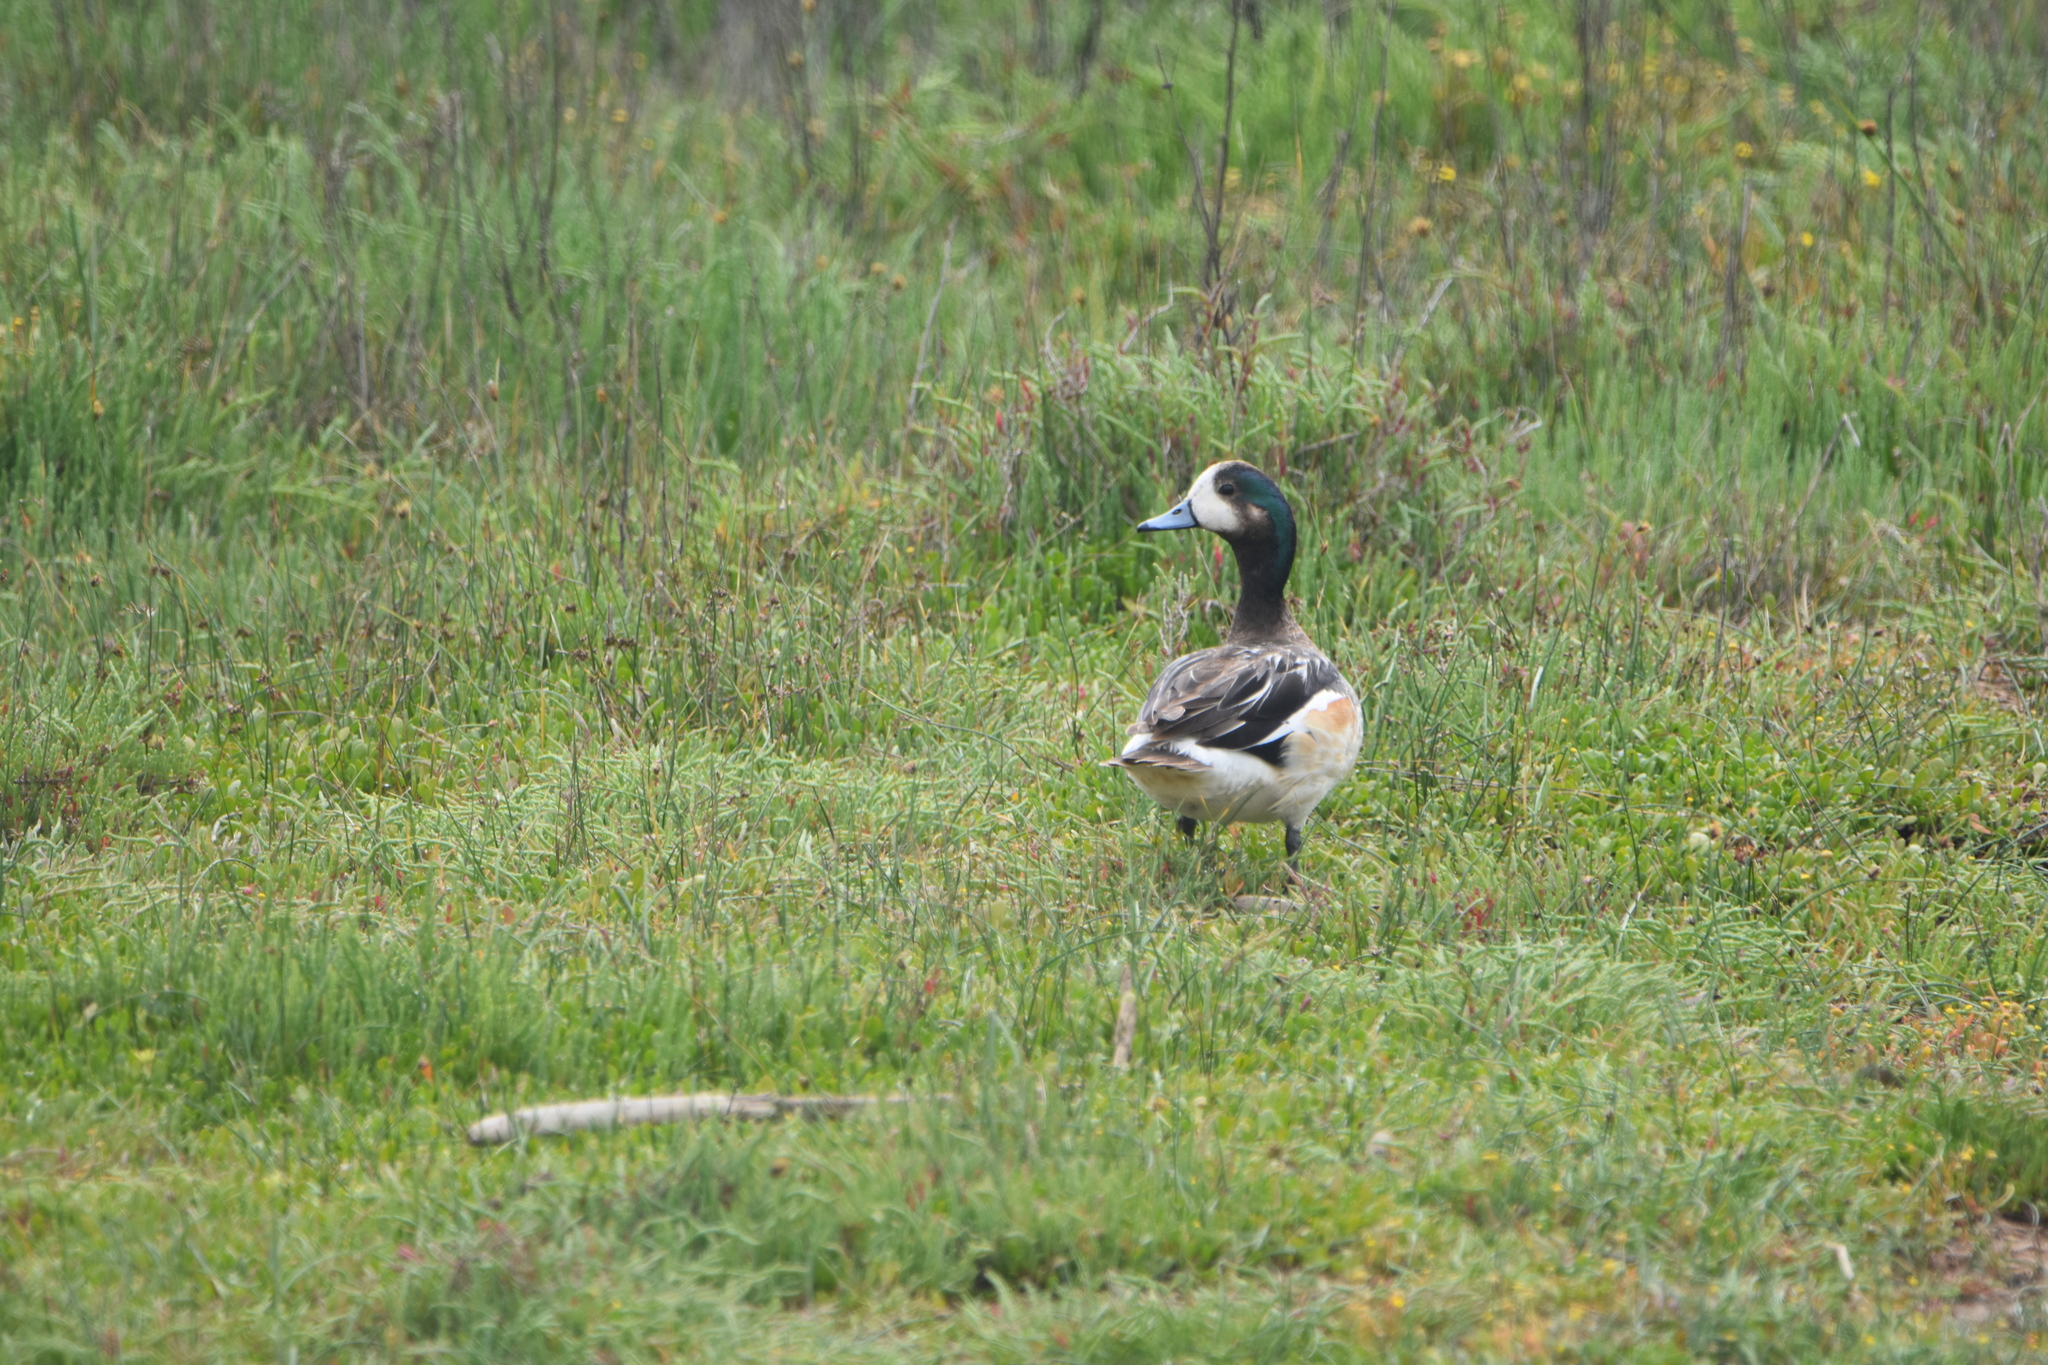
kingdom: Animalia
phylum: Chordata
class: Aves
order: Anseriformes
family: Anatidae
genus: Mareca
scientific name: Mareca sibilatrix
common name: Chiloe wigeon
